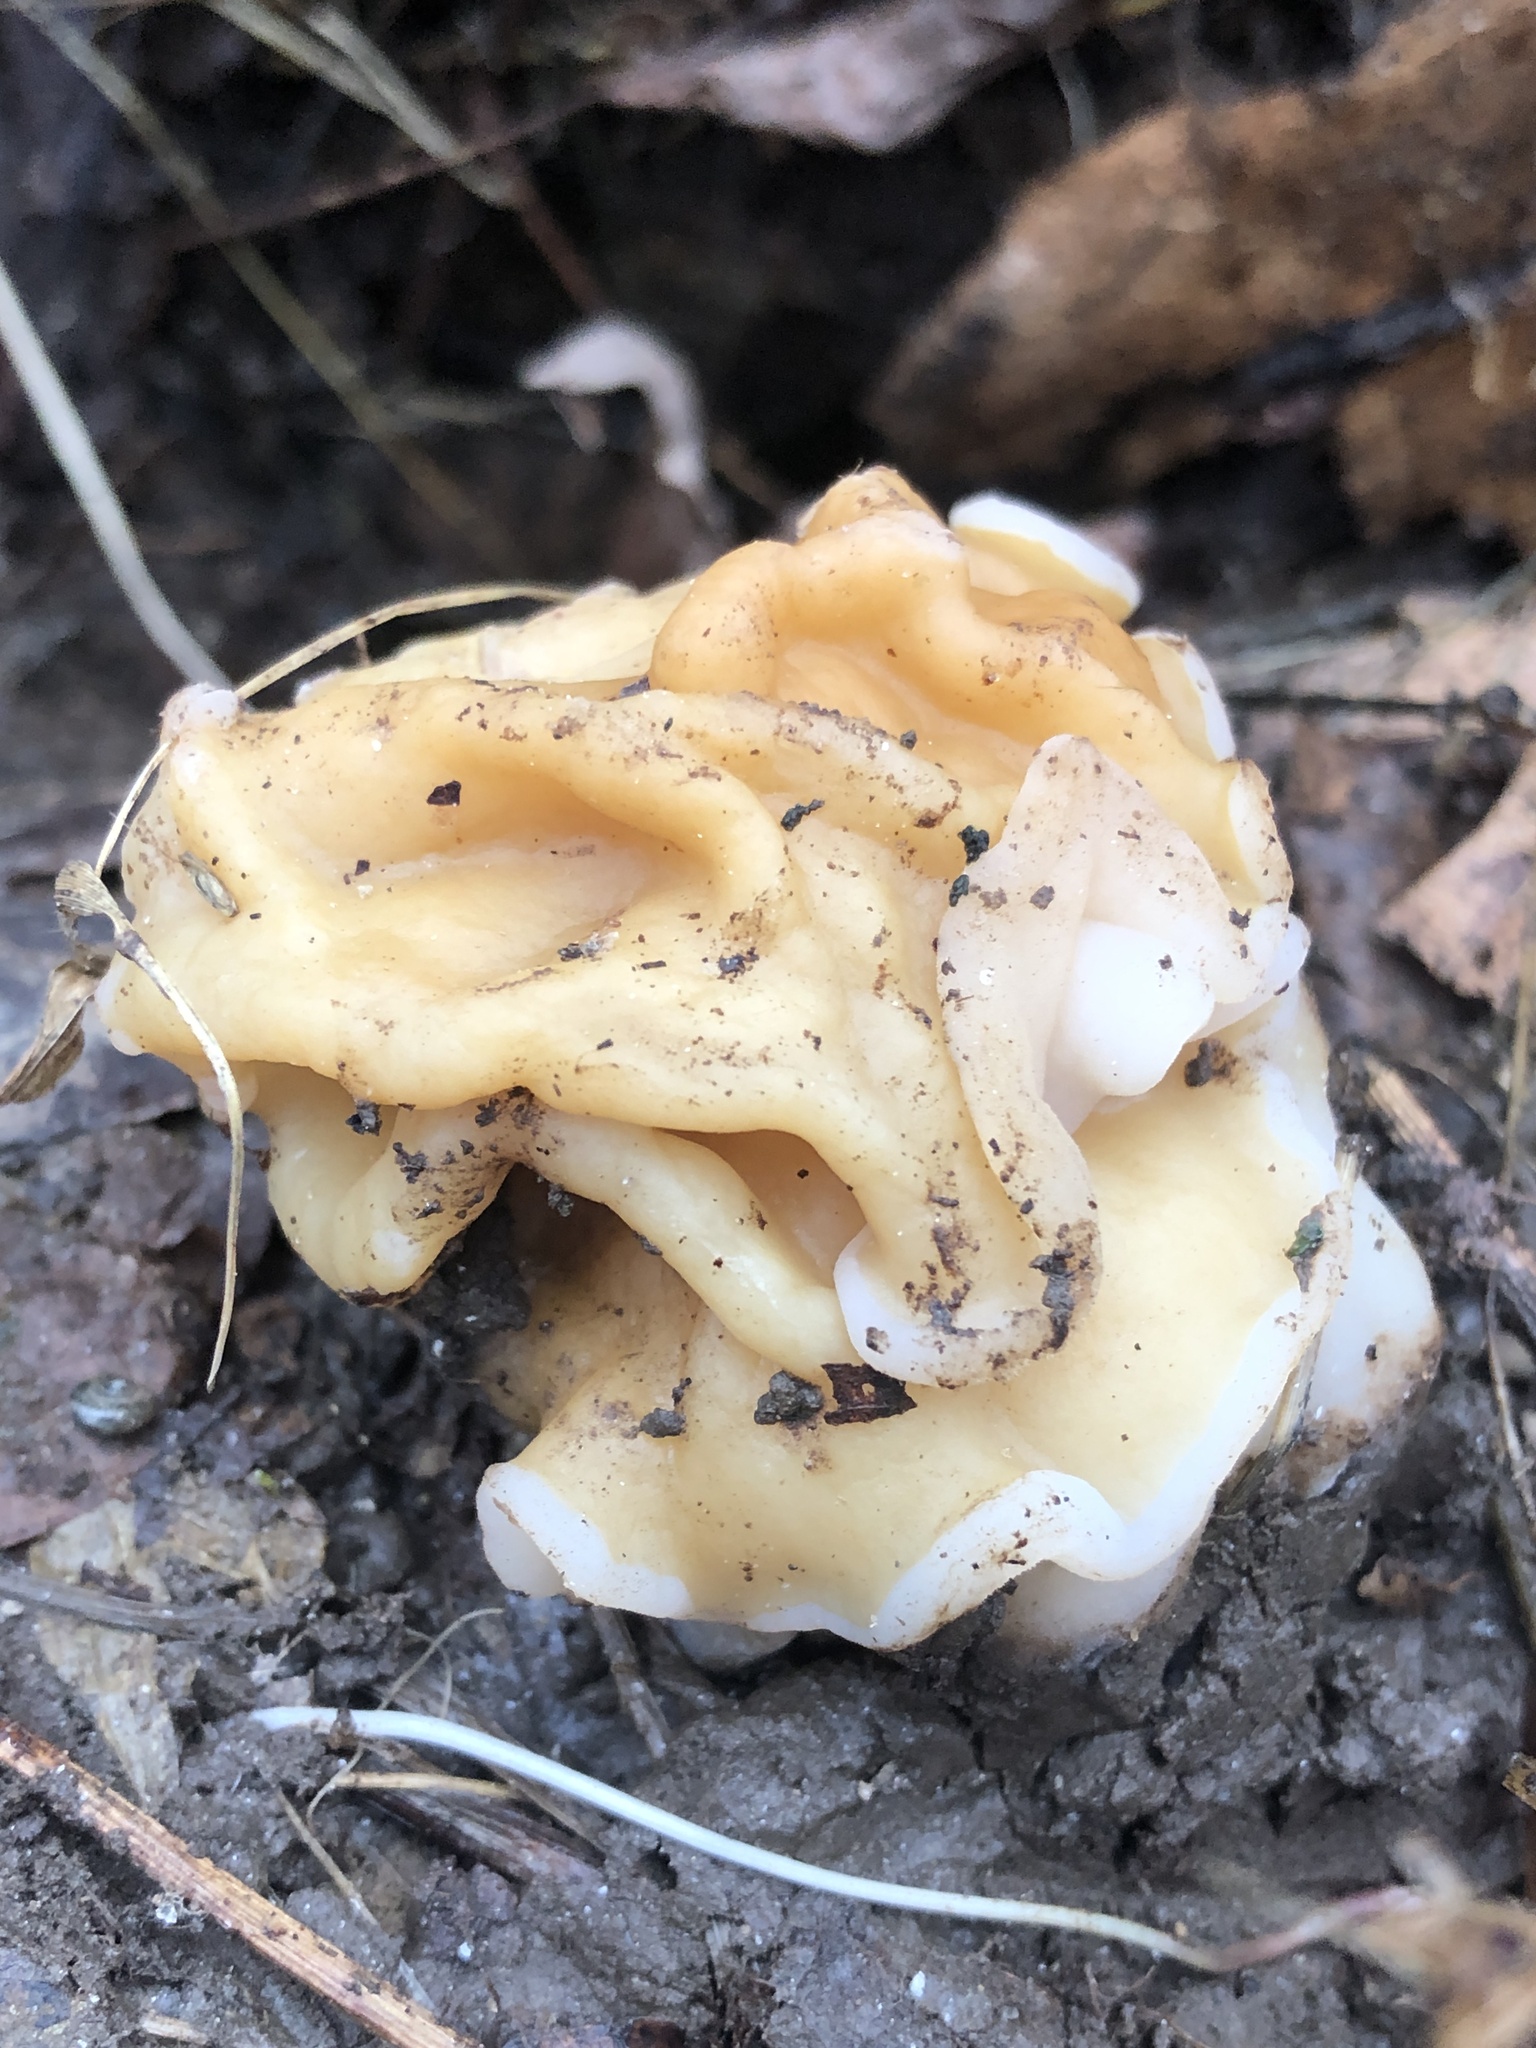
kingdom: Fungi
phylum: Ascomycota
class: Pezizomycetes
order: Pezizales
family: Discinaceae
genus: Gyromitra
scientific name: Gyromitra korfii
